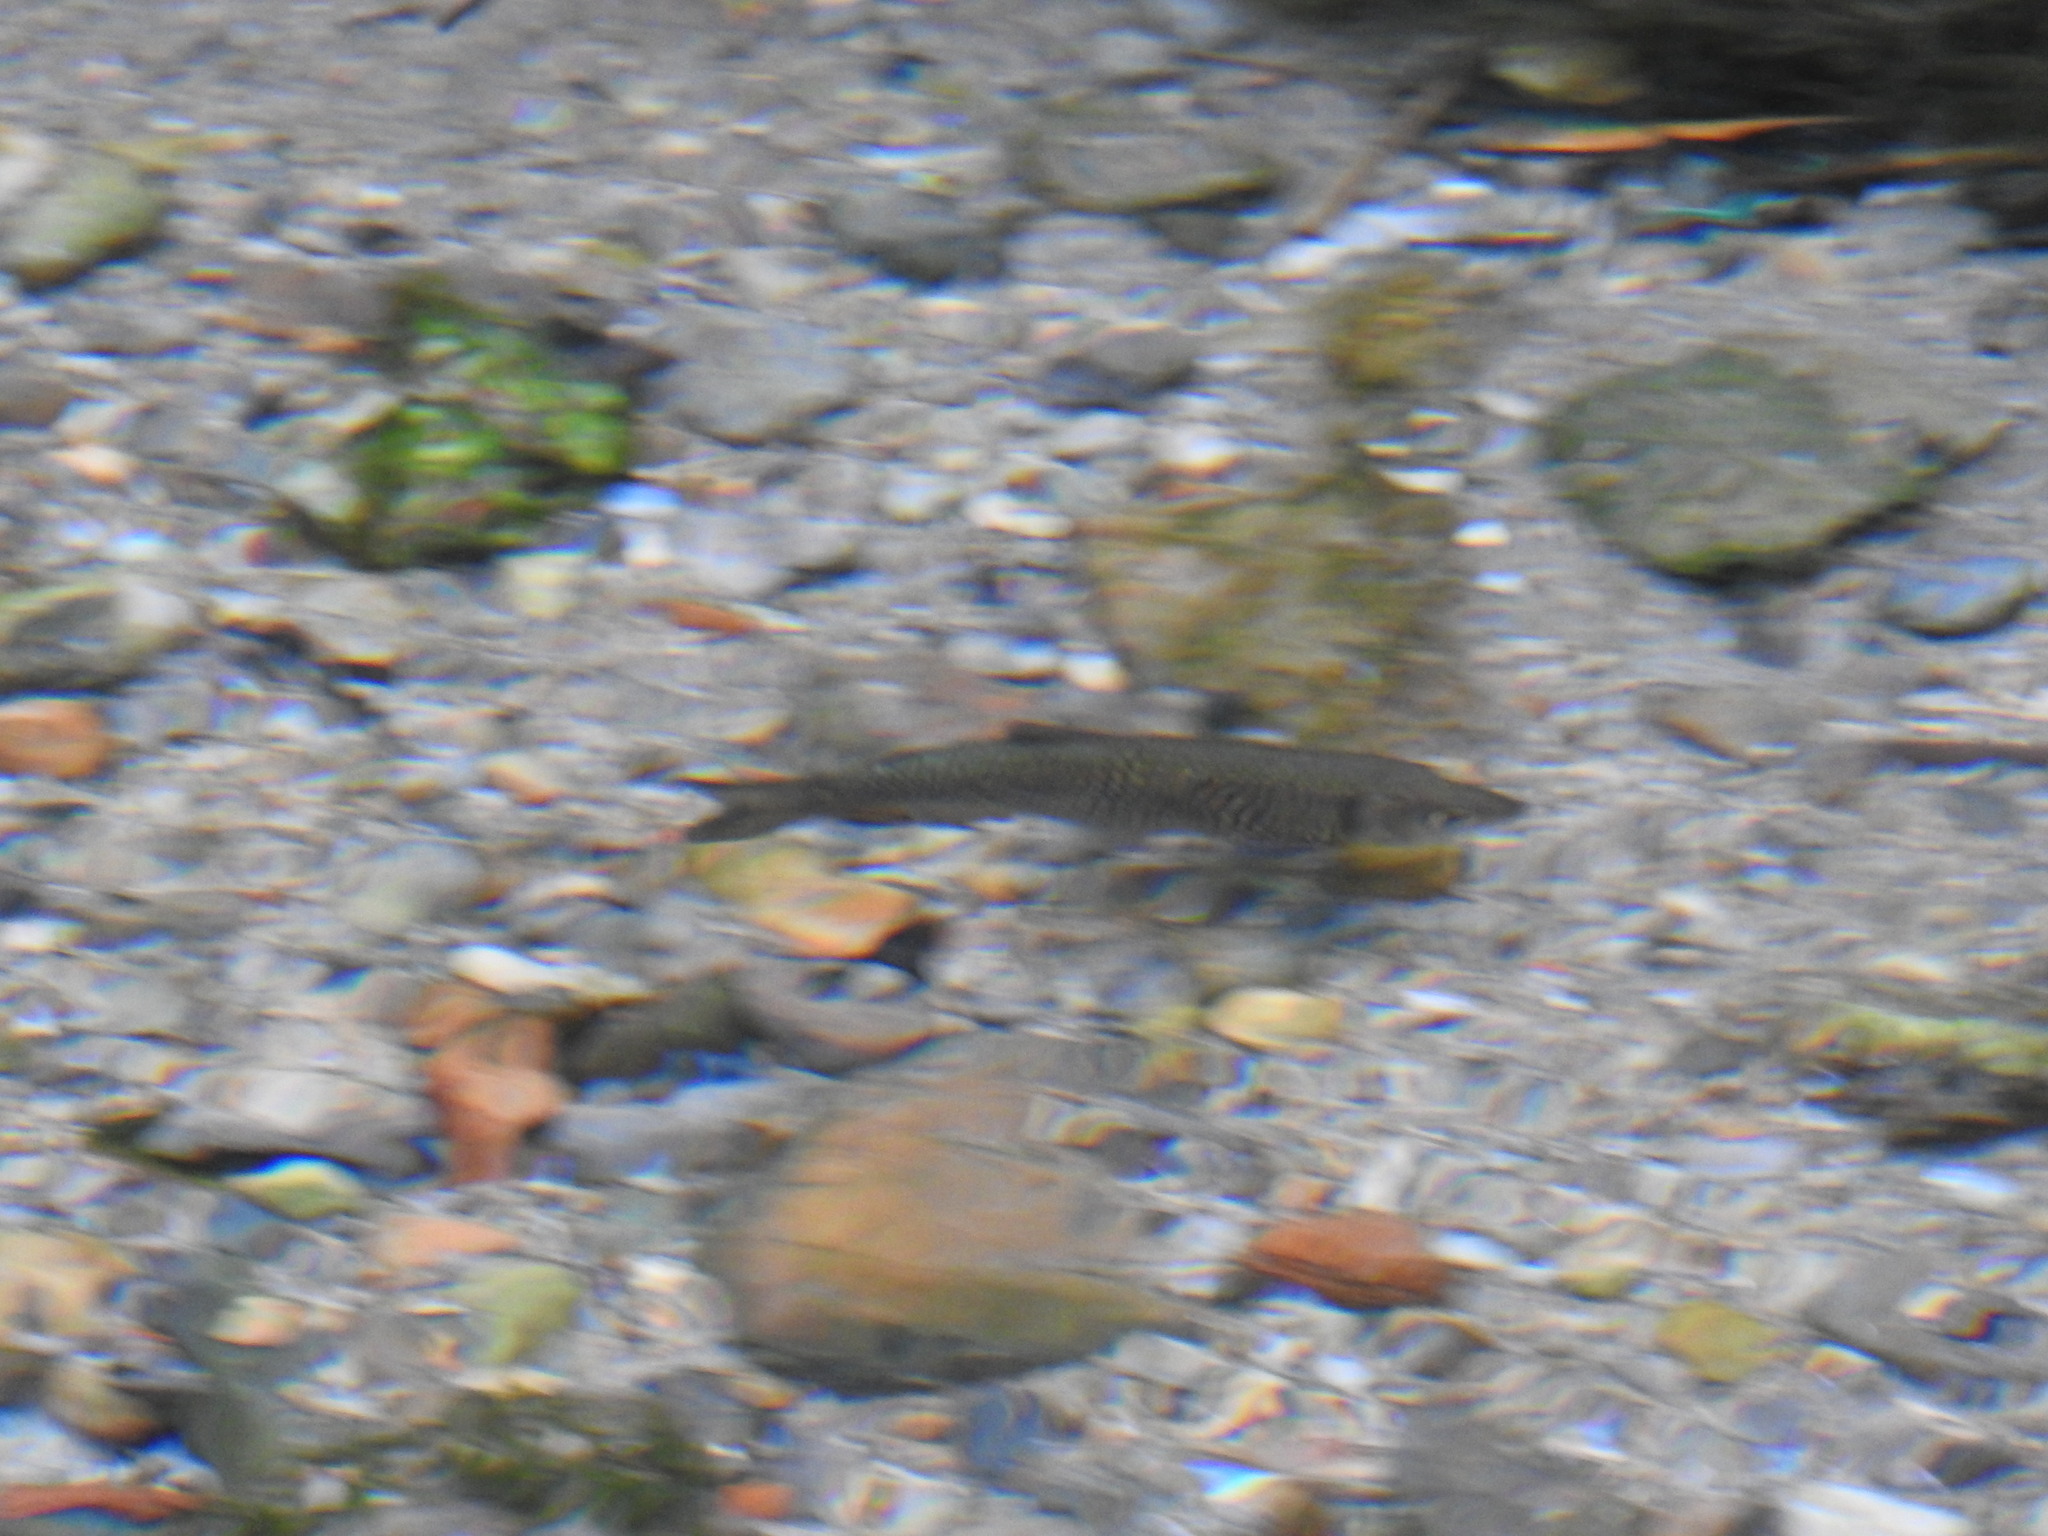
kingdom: Animalia
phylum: Chordata
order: Cypriniformes
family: Cyprinidae
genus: Squalius
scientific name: Squalius squalus
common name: Italian chub
